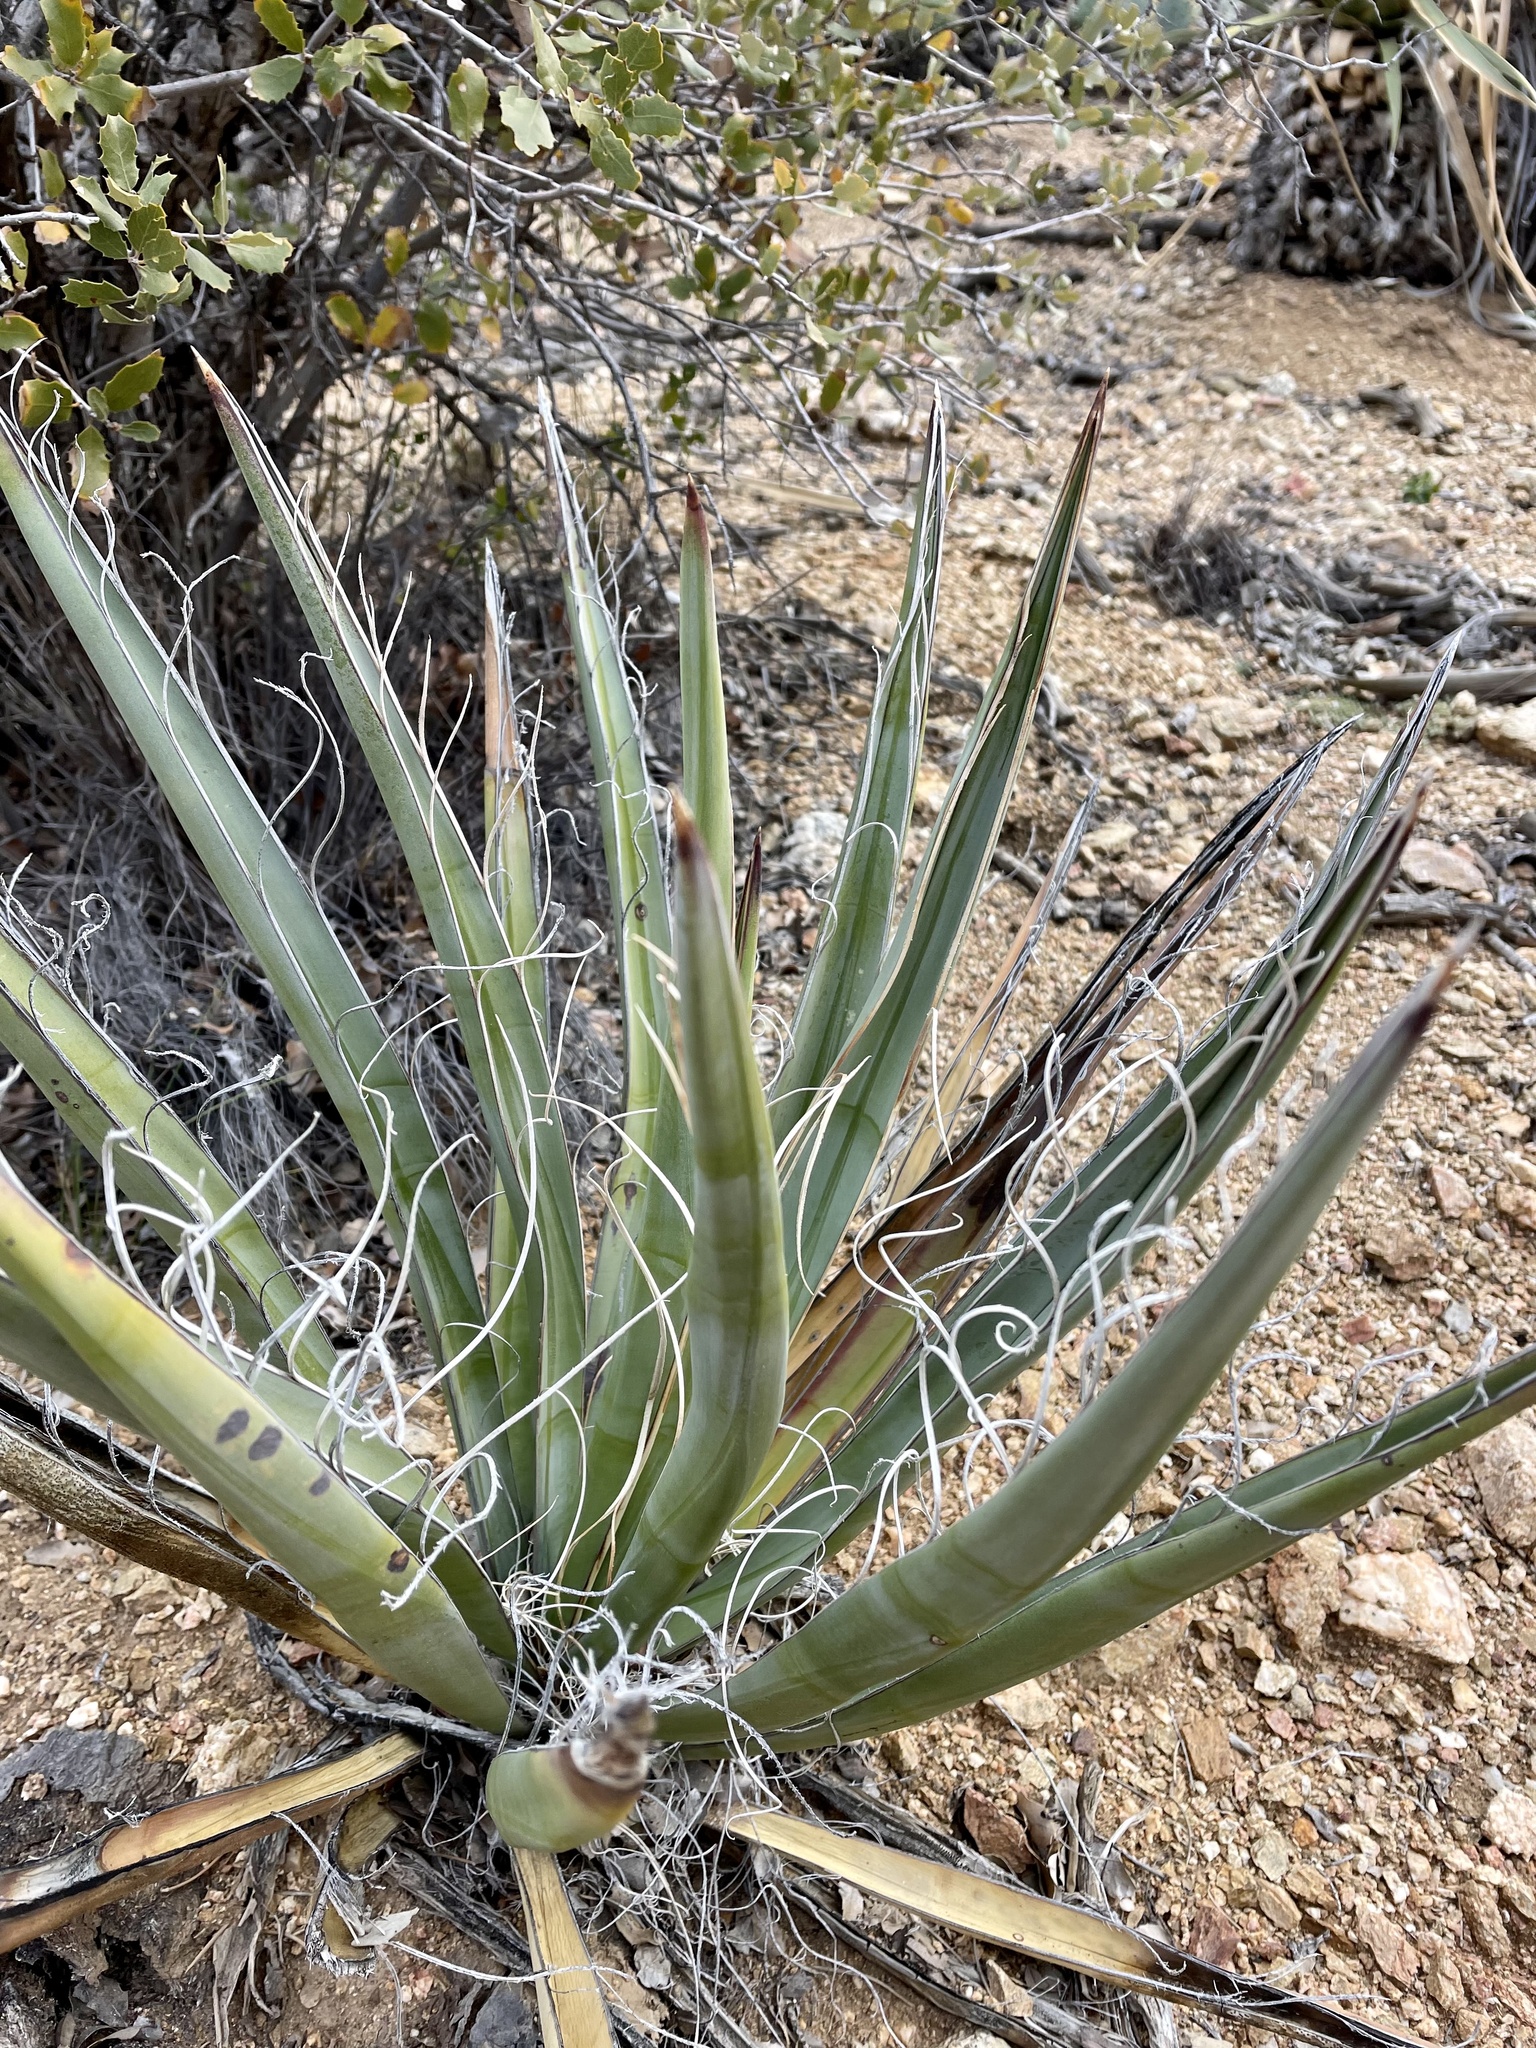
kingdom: Plantae
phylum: Tracheophyta
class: Liliopsida
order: Asparagales
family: Asparagaceae
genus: Yucca
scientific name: Yucca schidigera
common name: Mojave yucca
